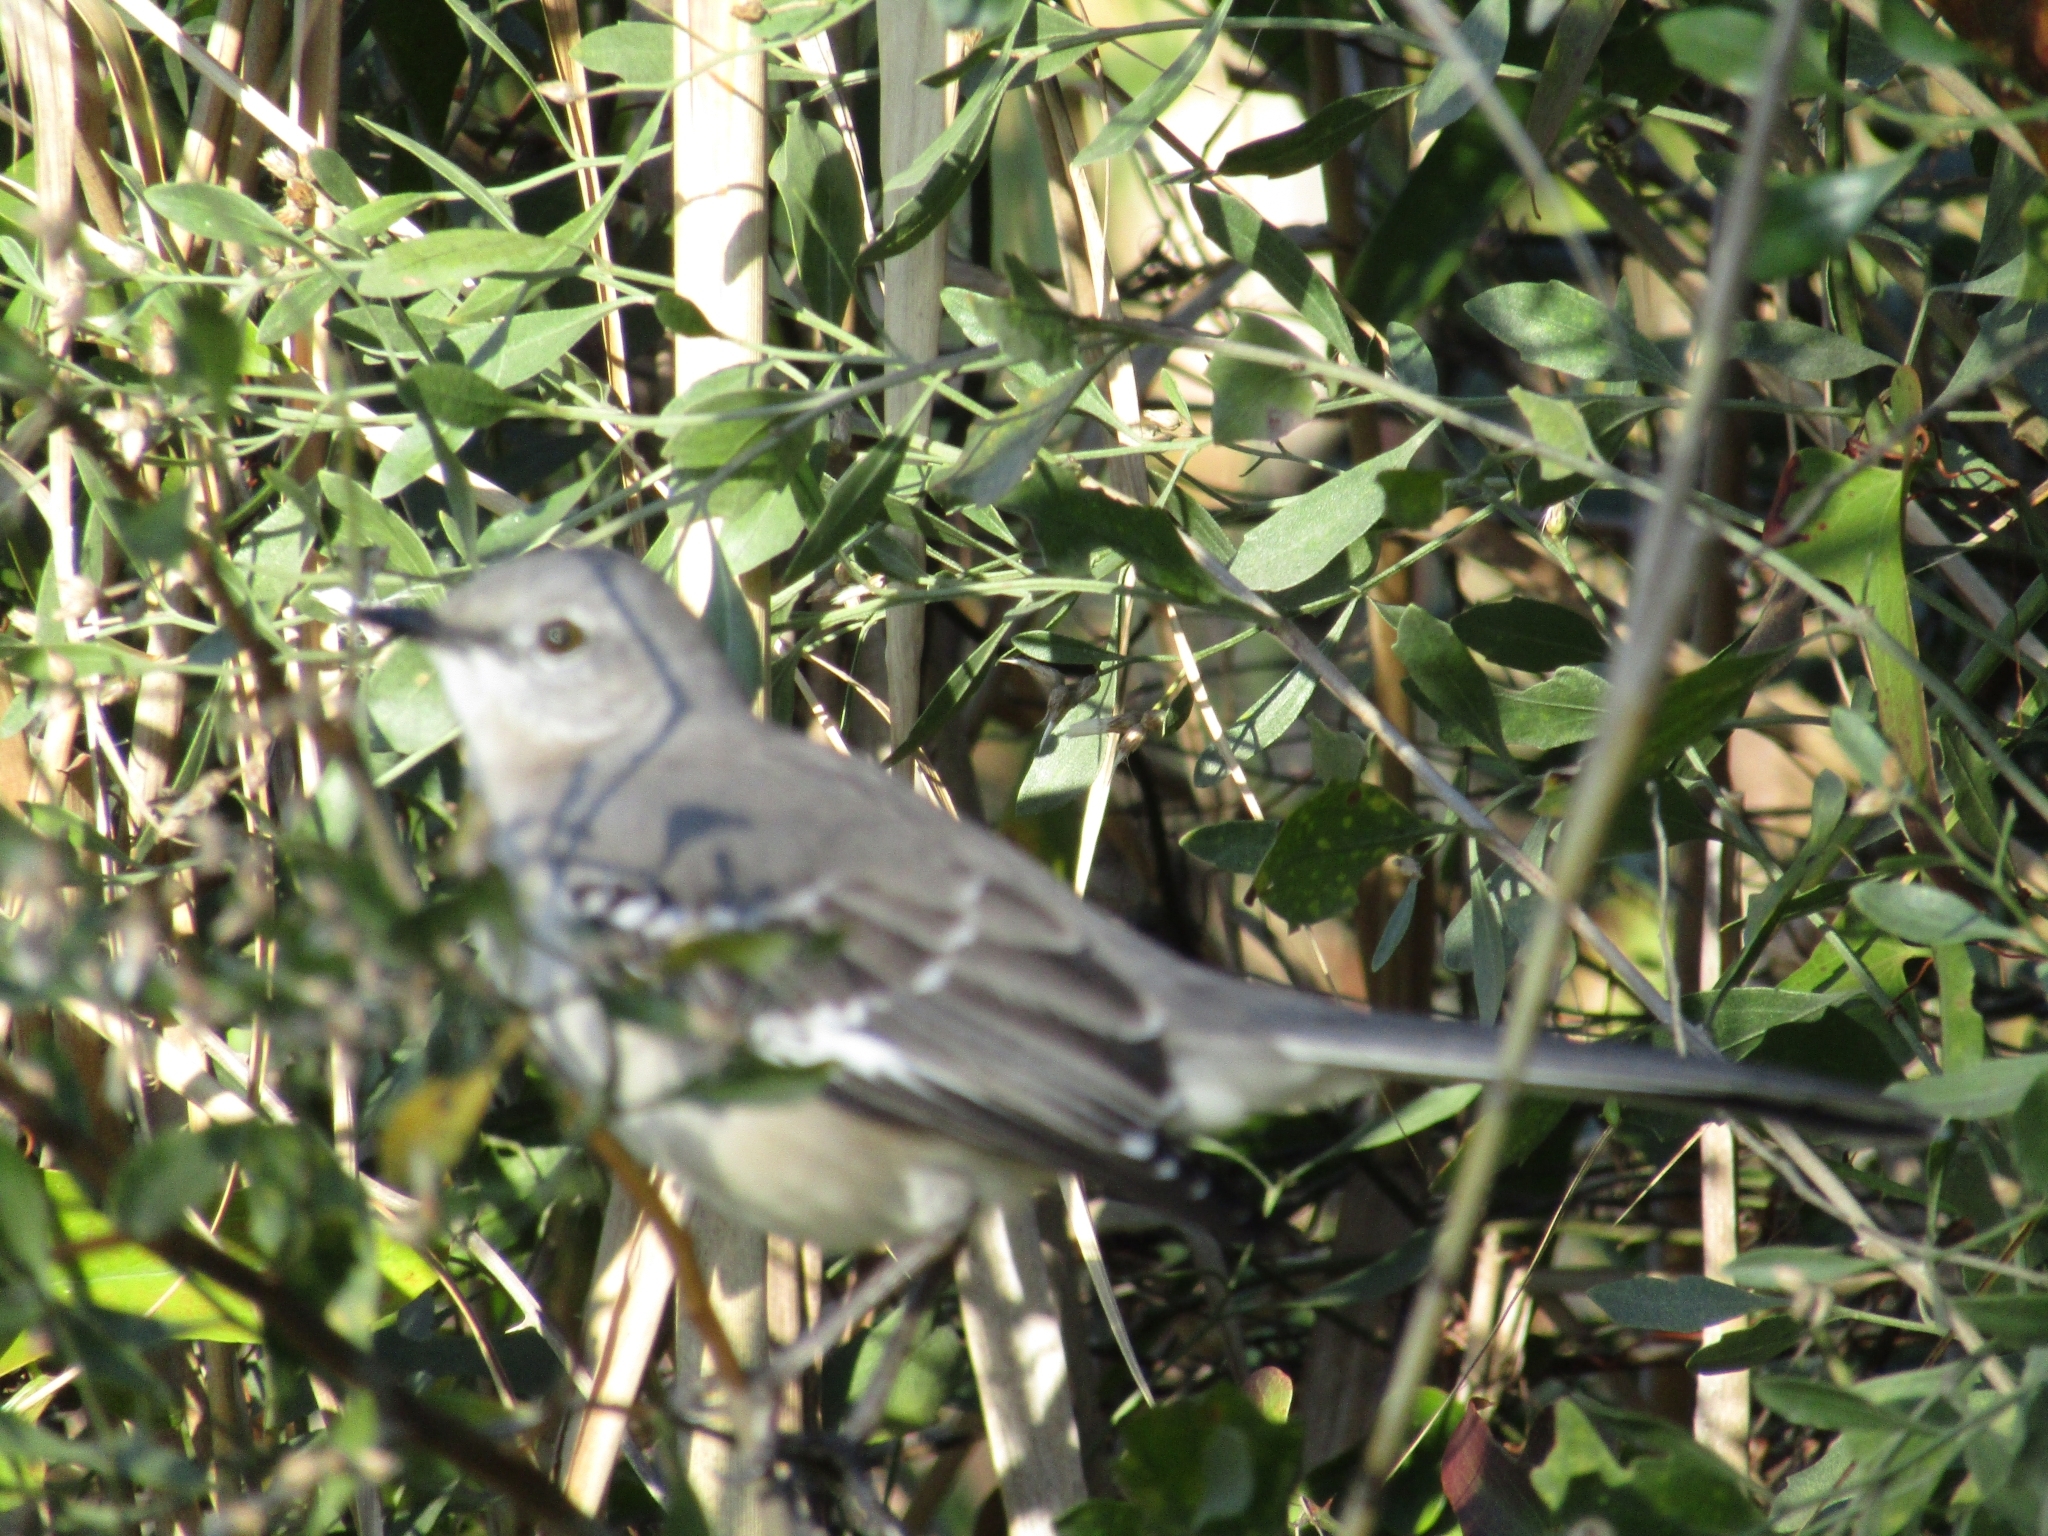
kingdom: Animalia
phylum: Chordata
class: Aves
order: Passeriformes
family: Mimidae
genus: Mimus
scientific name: Mimus polyglottos
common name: Northern mockingbird
